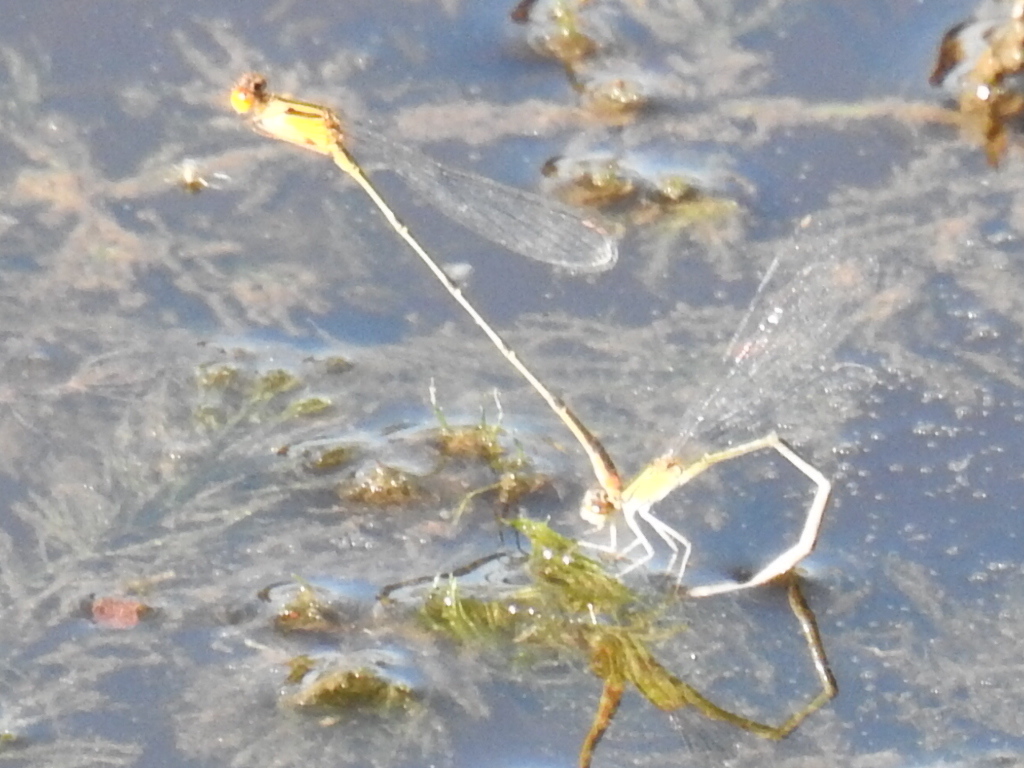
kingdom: Animalia
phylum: Arthropoda
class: Insecta
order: Odonata
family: Coenagrionidae
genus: Enallagma
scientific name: Enallagma signatum
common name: Orange bluet
